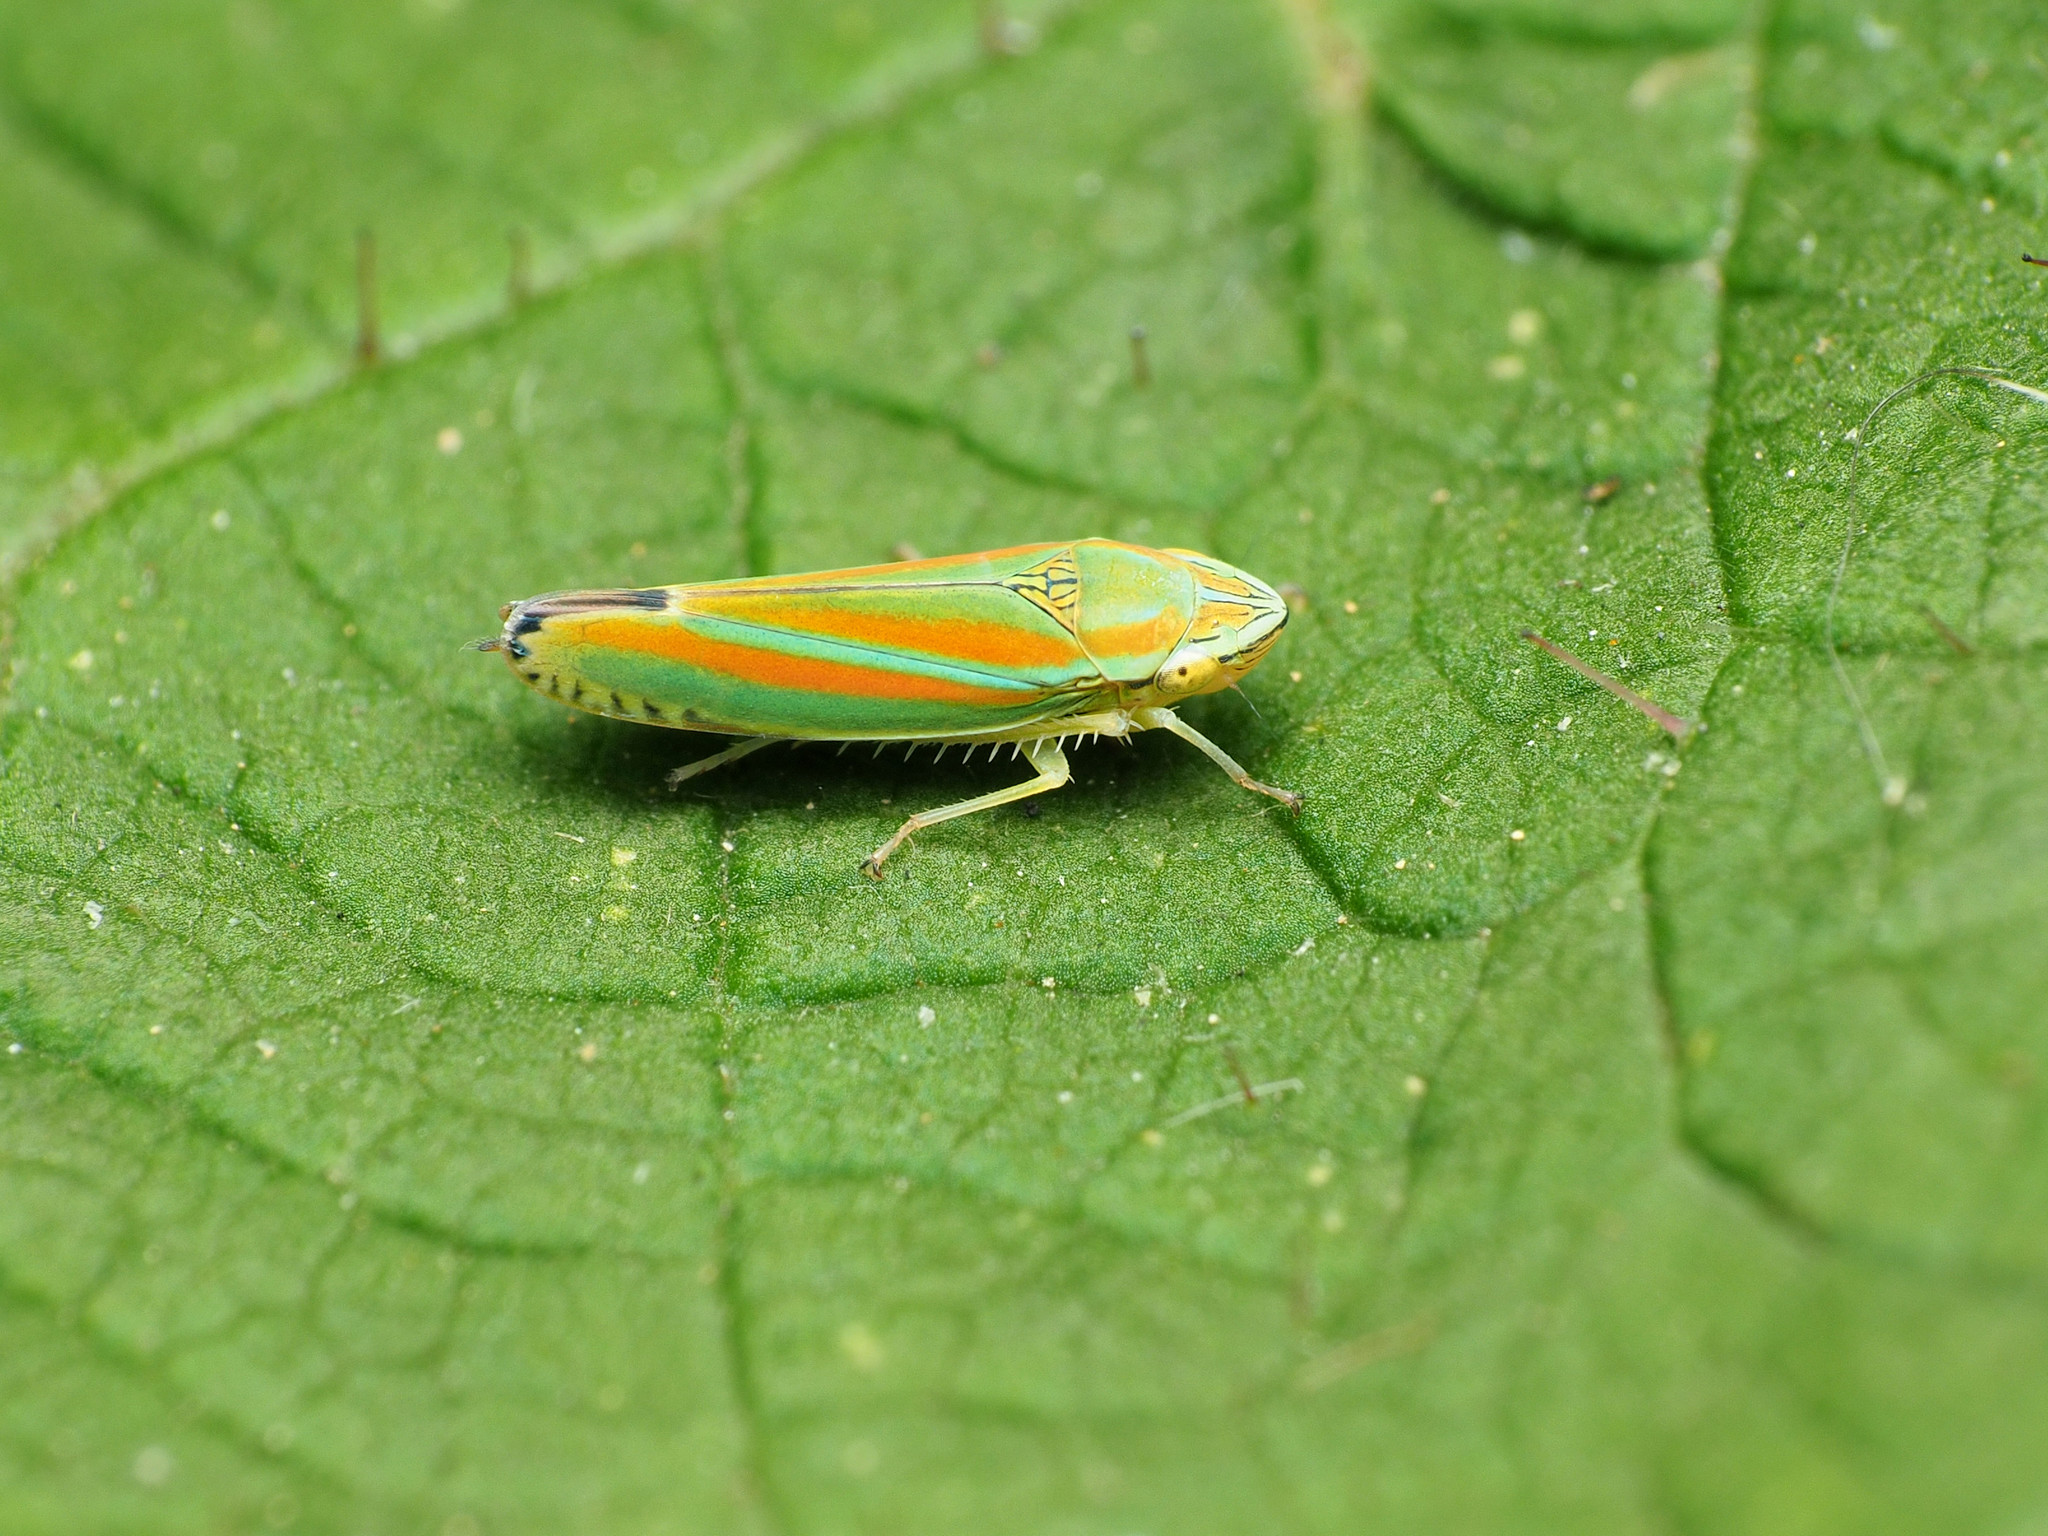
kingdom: Animalia
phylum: Arthropoda
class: Insecta
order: Hemiptera
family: Cicadellidae
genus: Graphocephala
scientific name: Graphocephala versuta
